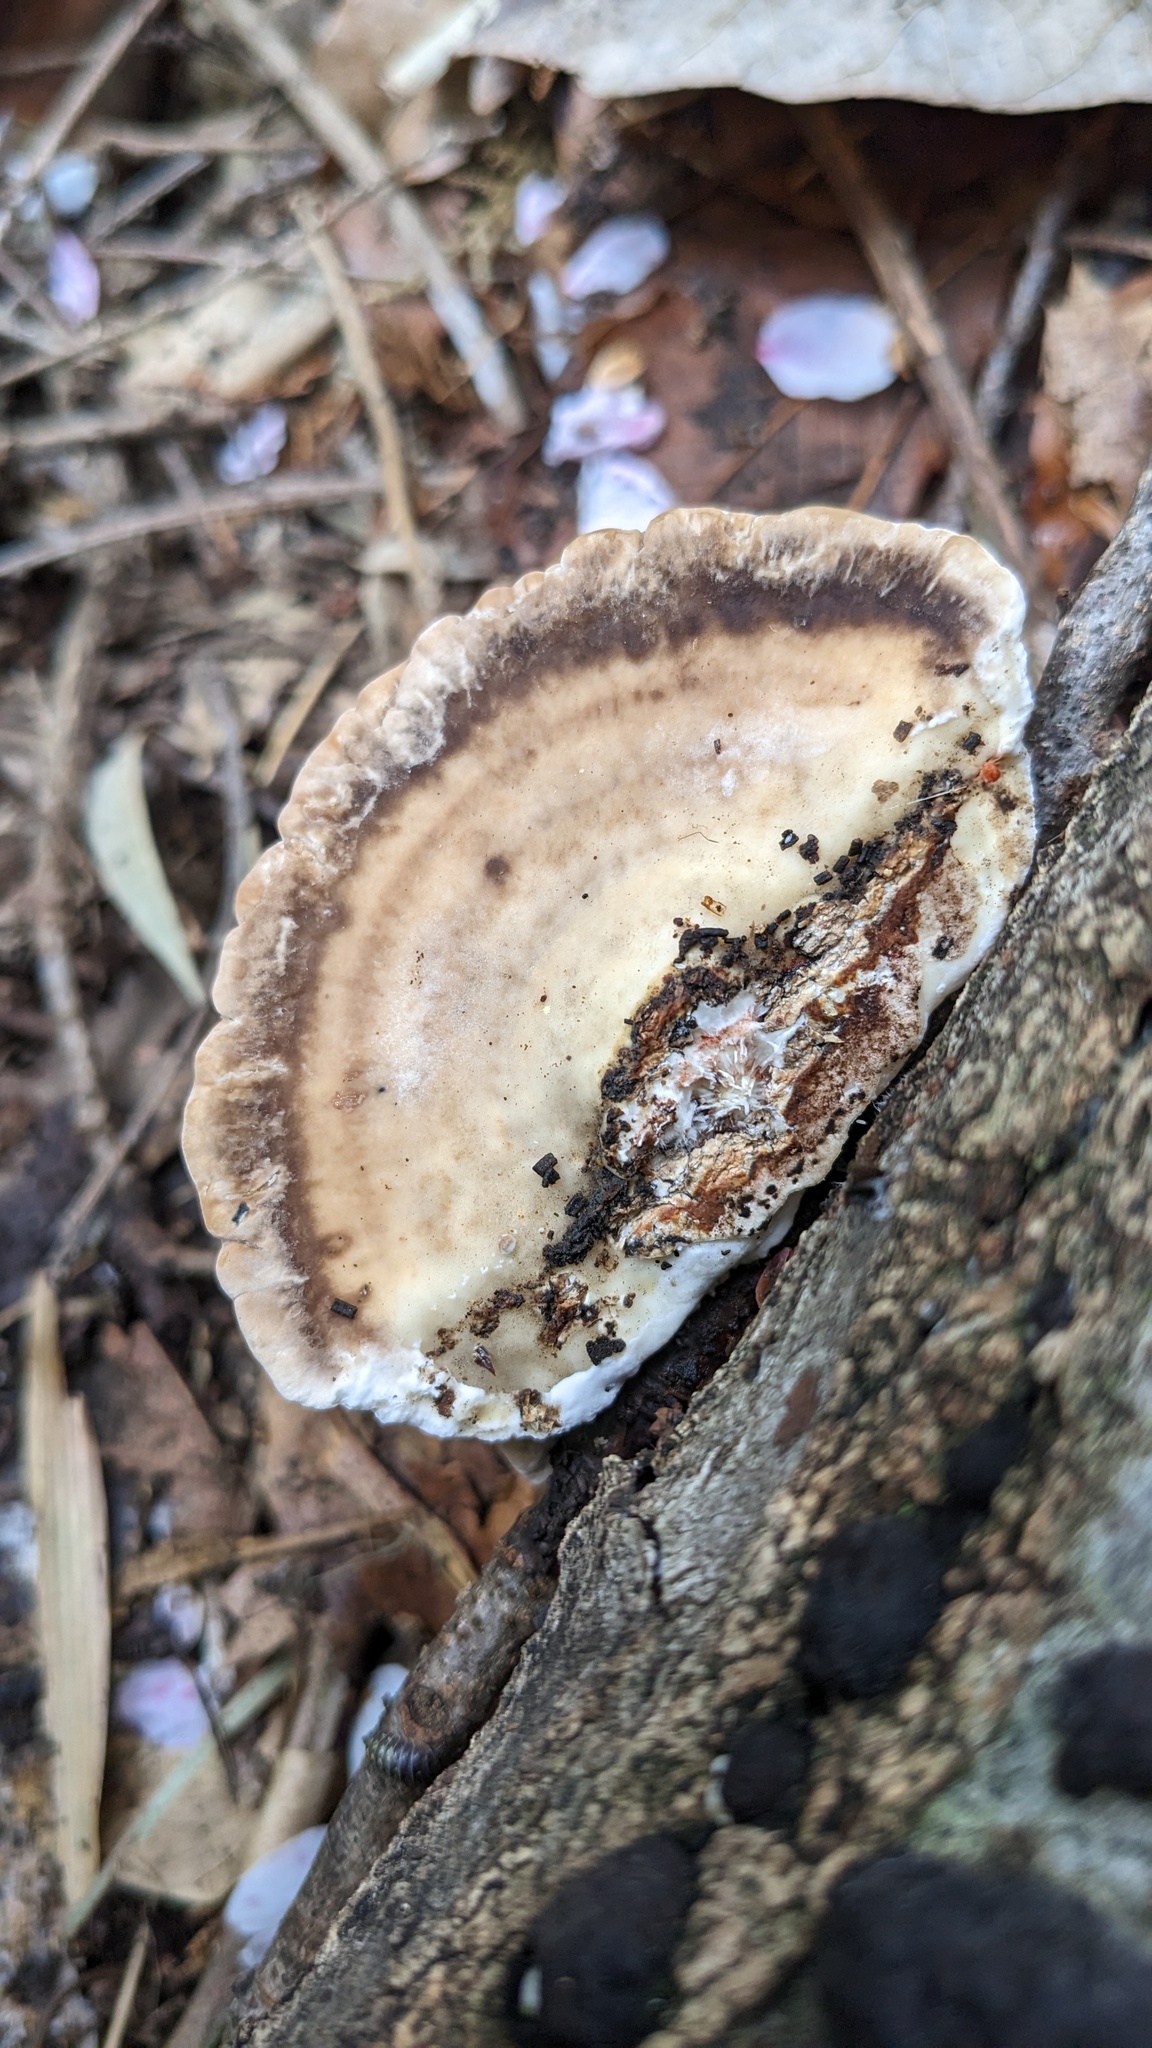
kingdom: Fungi
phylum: Basidiomycota
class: Agaricomycetes
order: Polyporales
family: Polyporaceae
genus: Trametes
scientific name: Trametes orientalis
